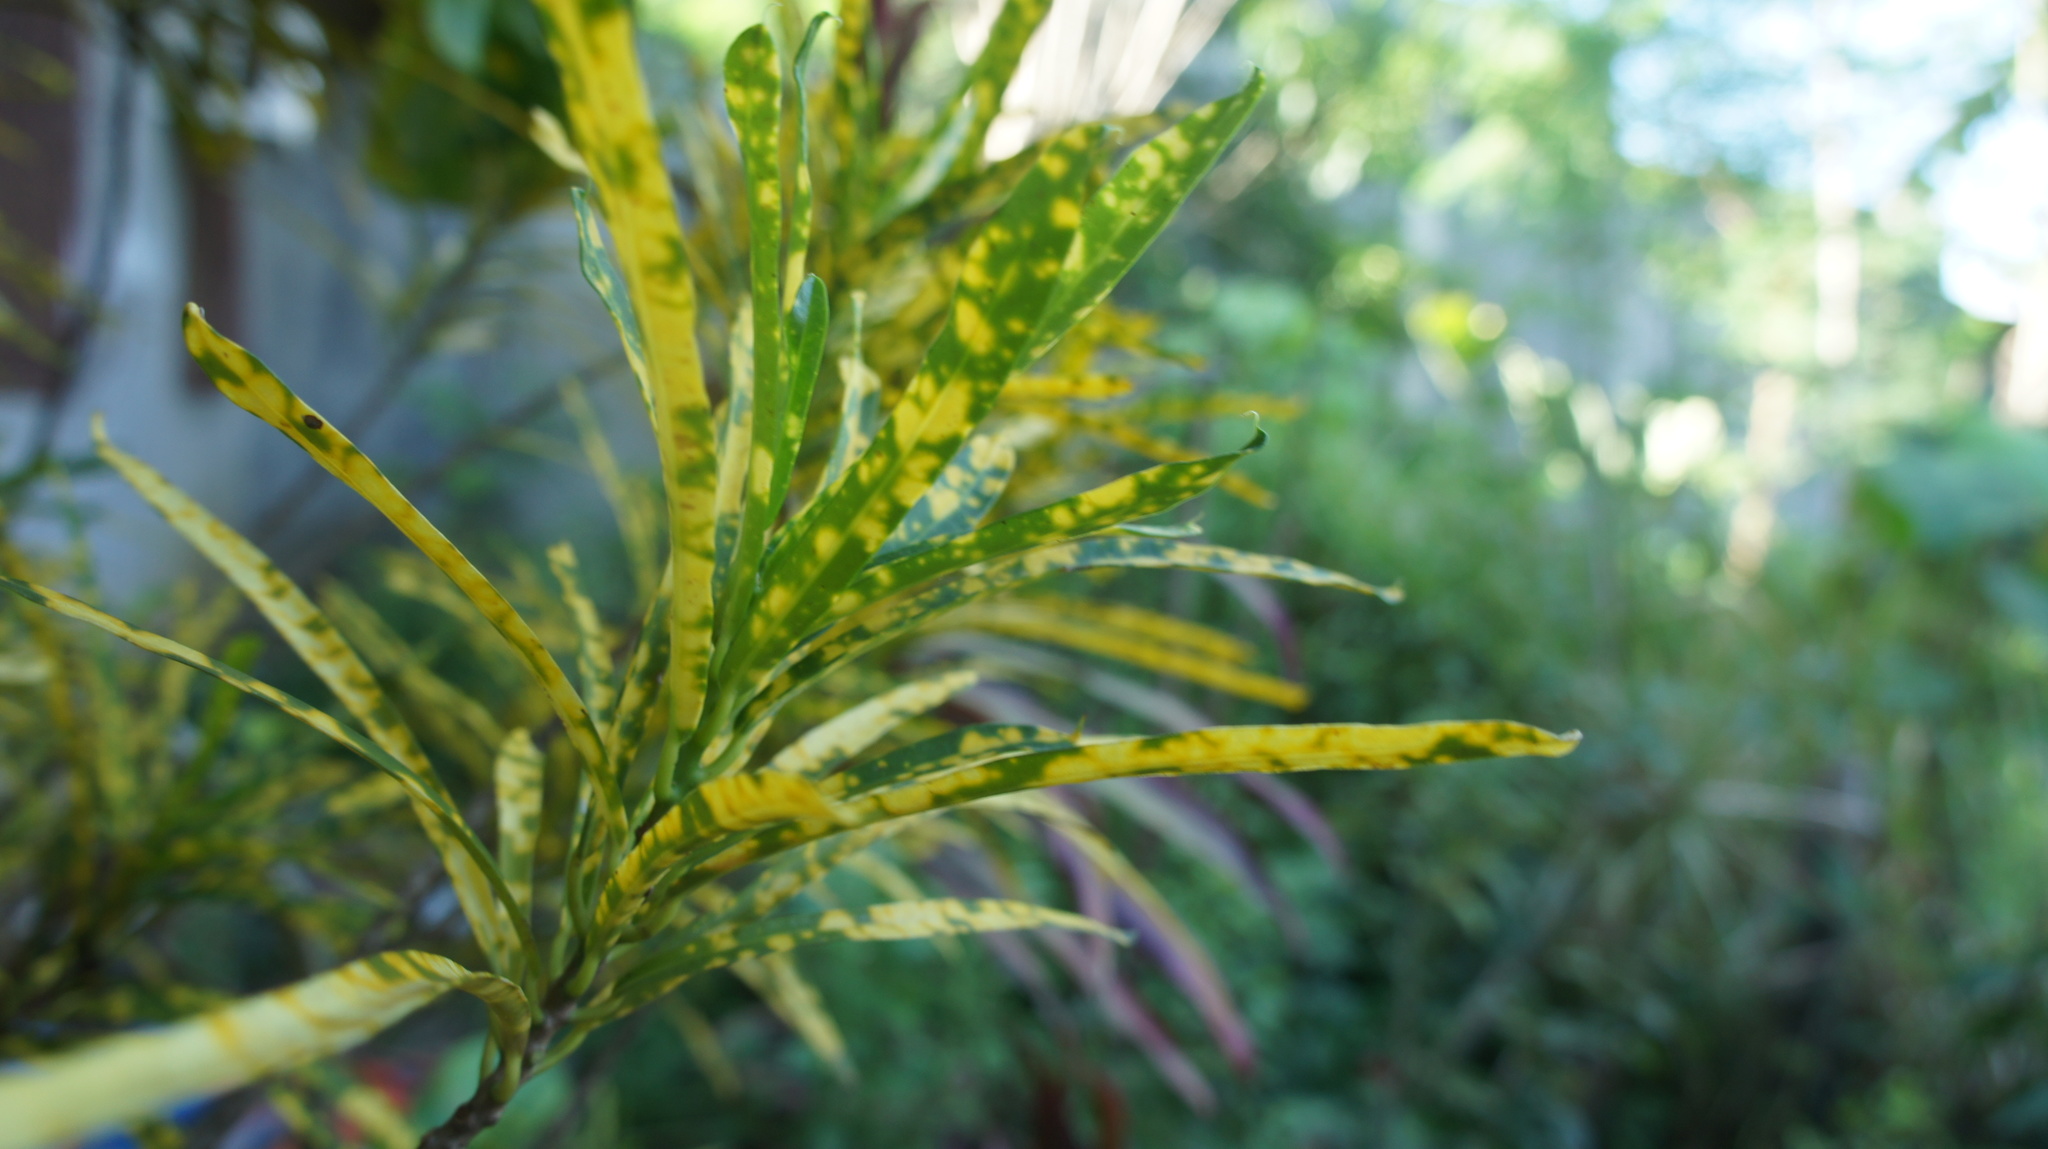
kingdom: Plantae
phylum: Tracheophyta
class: Magnoliopsida
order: Malpighiales
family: Euphorbiaceae
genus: Codiaeum
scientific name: Codiaeum variegatum
